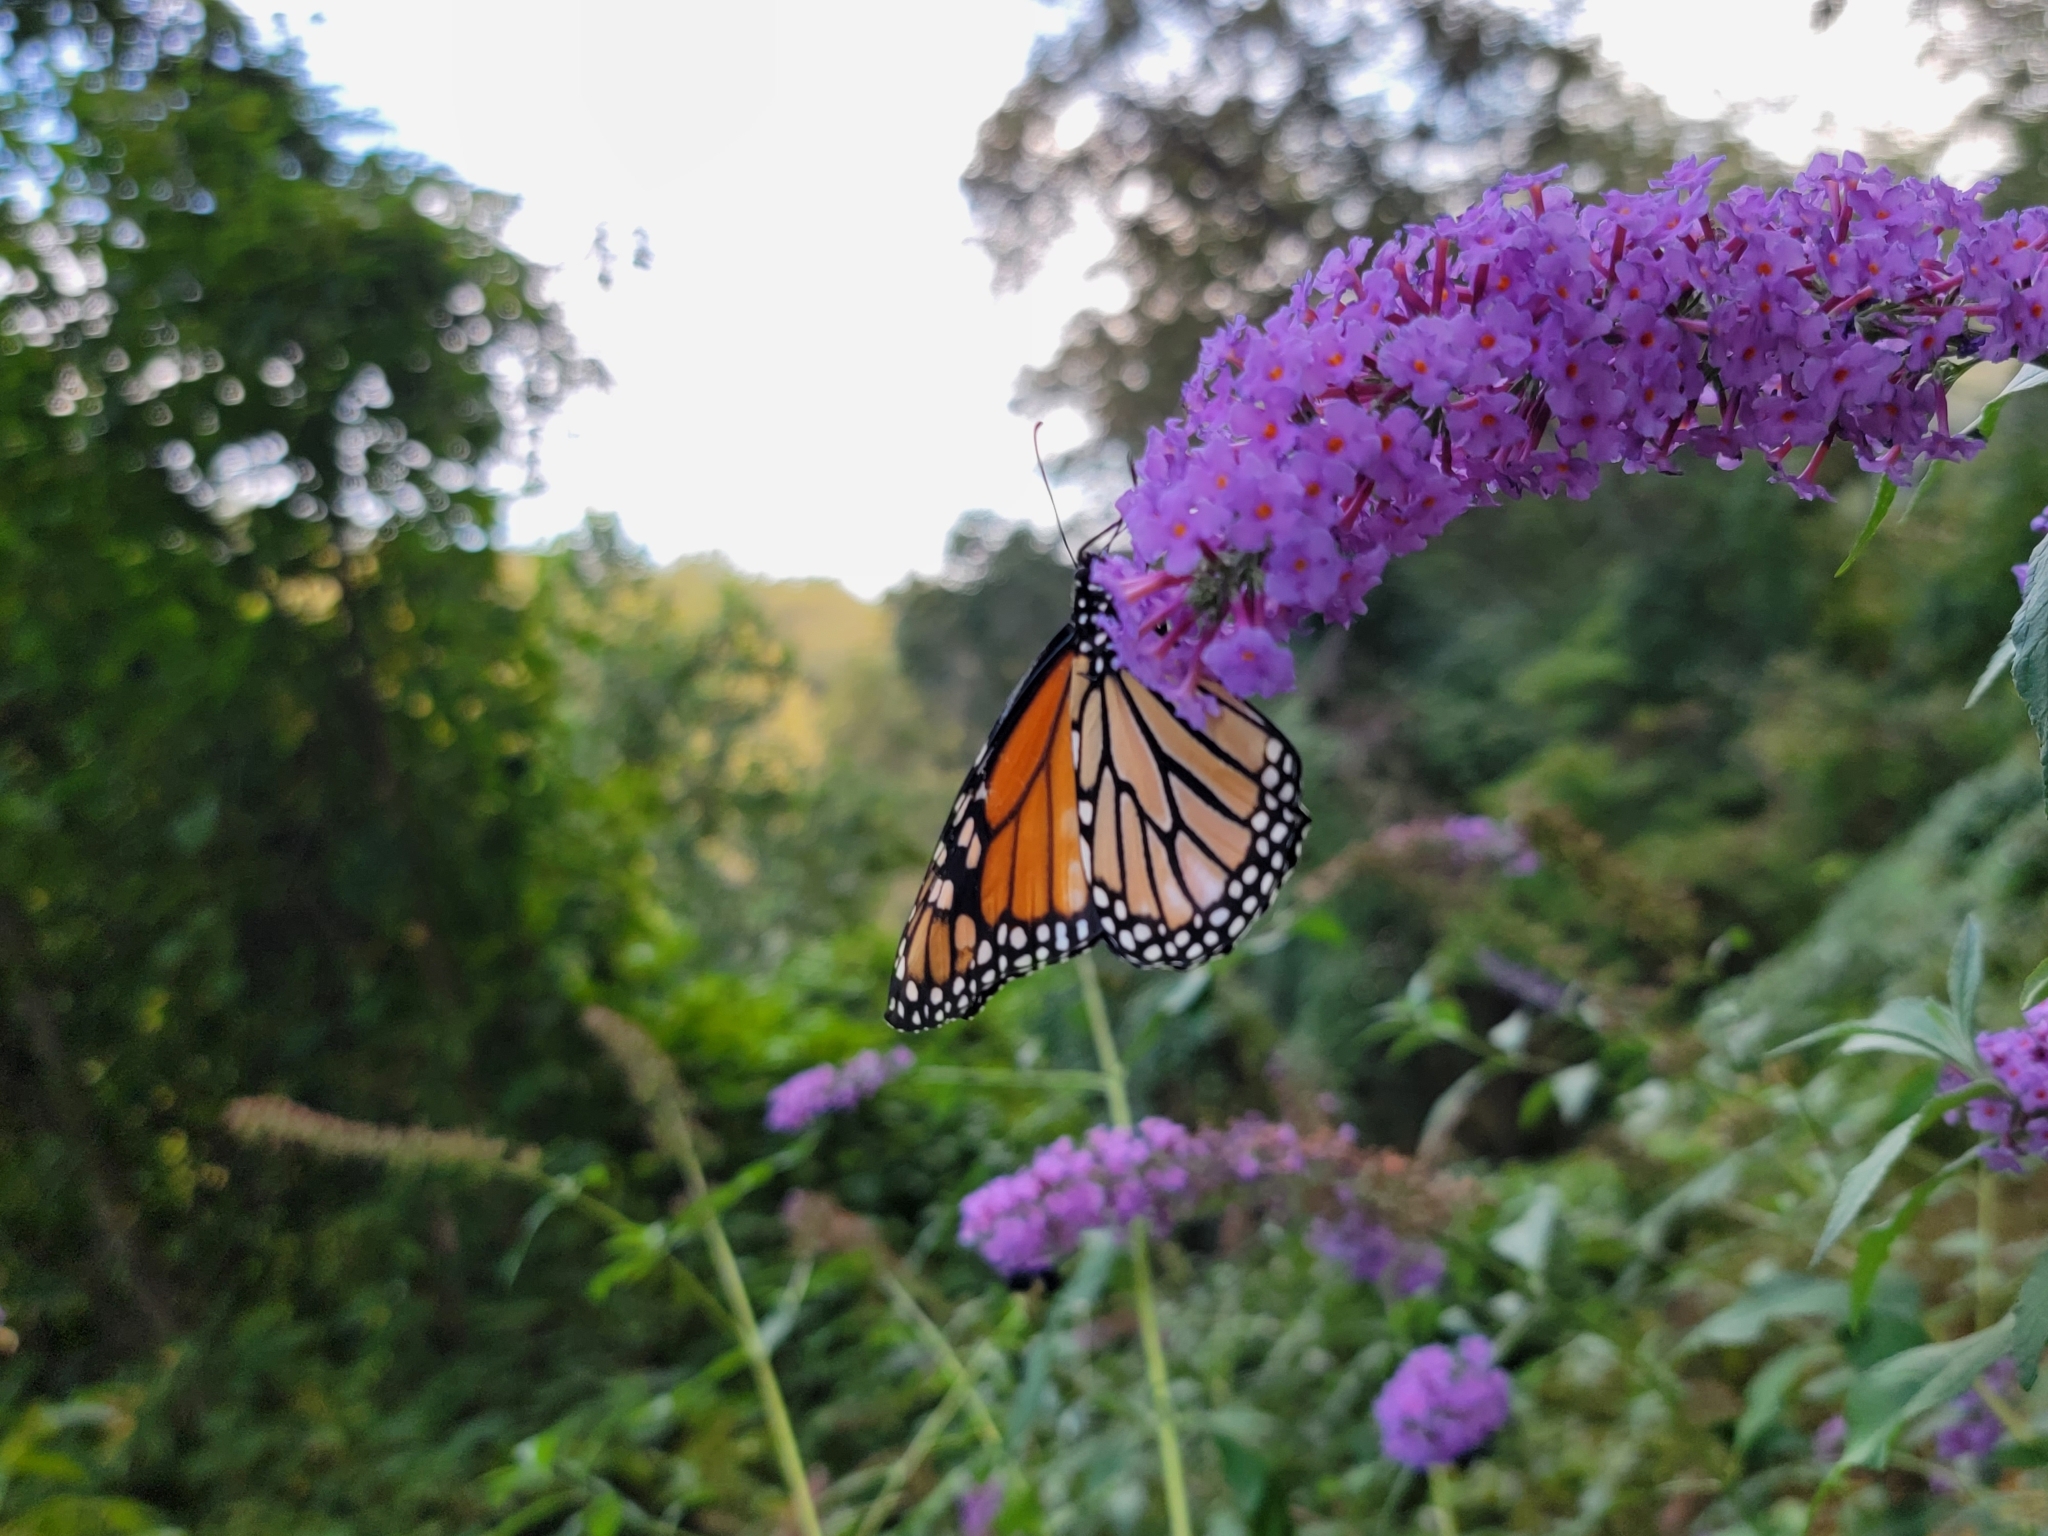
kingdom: Animalia
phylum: Arthropoda
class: Insecta
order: Lepidoptera
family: Nymphalidae
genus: Danaus
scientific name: Danaus plexippus
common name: Monarch
